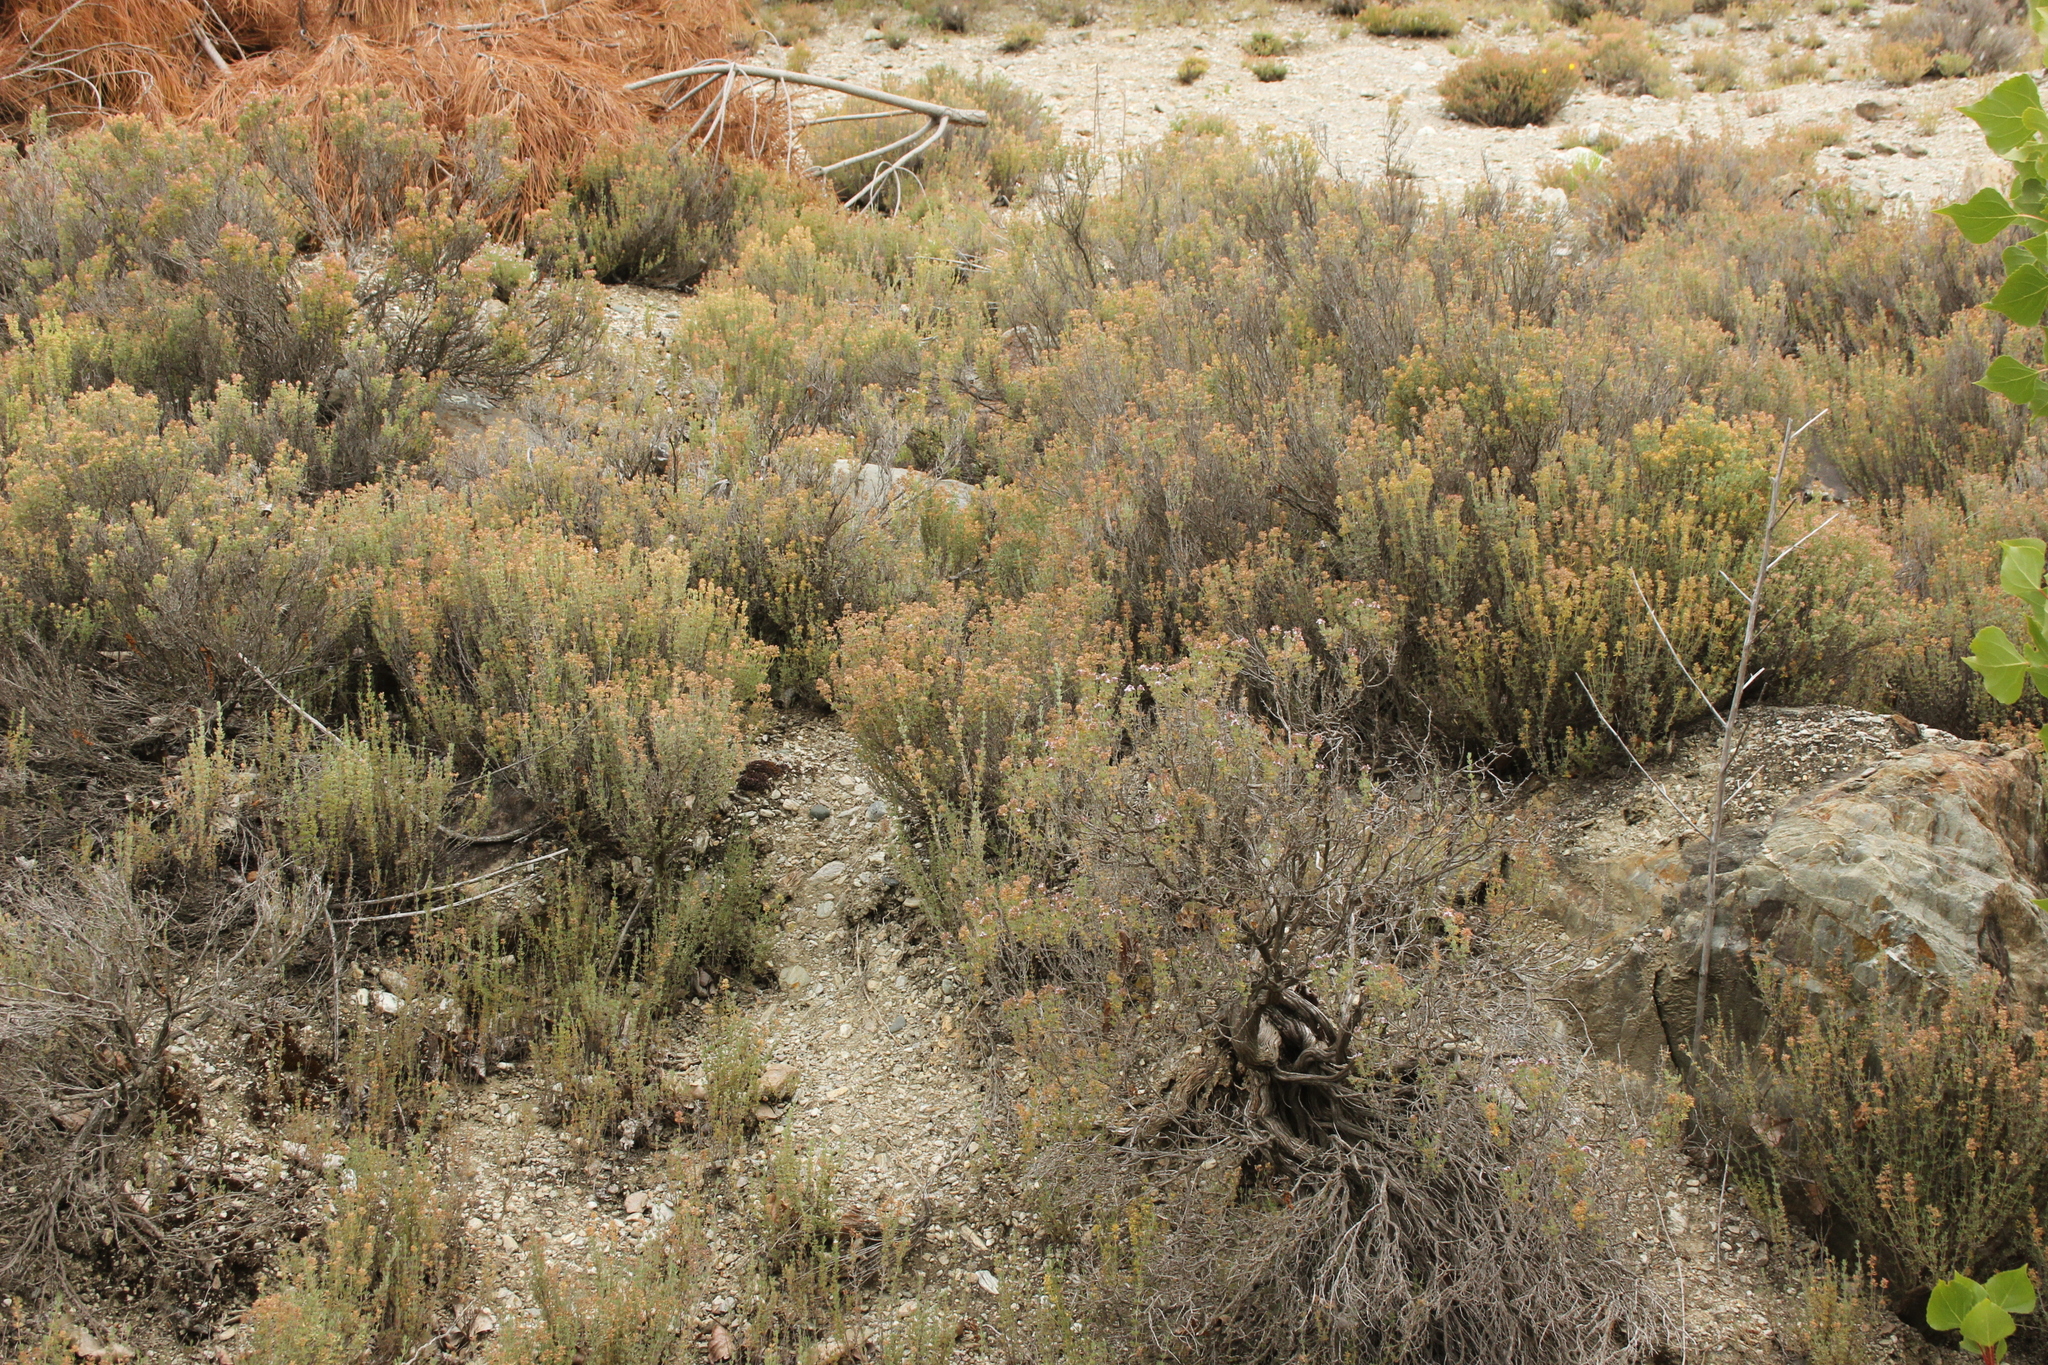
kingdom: Plantae
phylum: Tracheophyta
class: Magnoliopsida
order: Lamiales
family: Lamiaceae
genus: Thymus
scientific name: Thymus vulgaris
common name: Garden thyme
